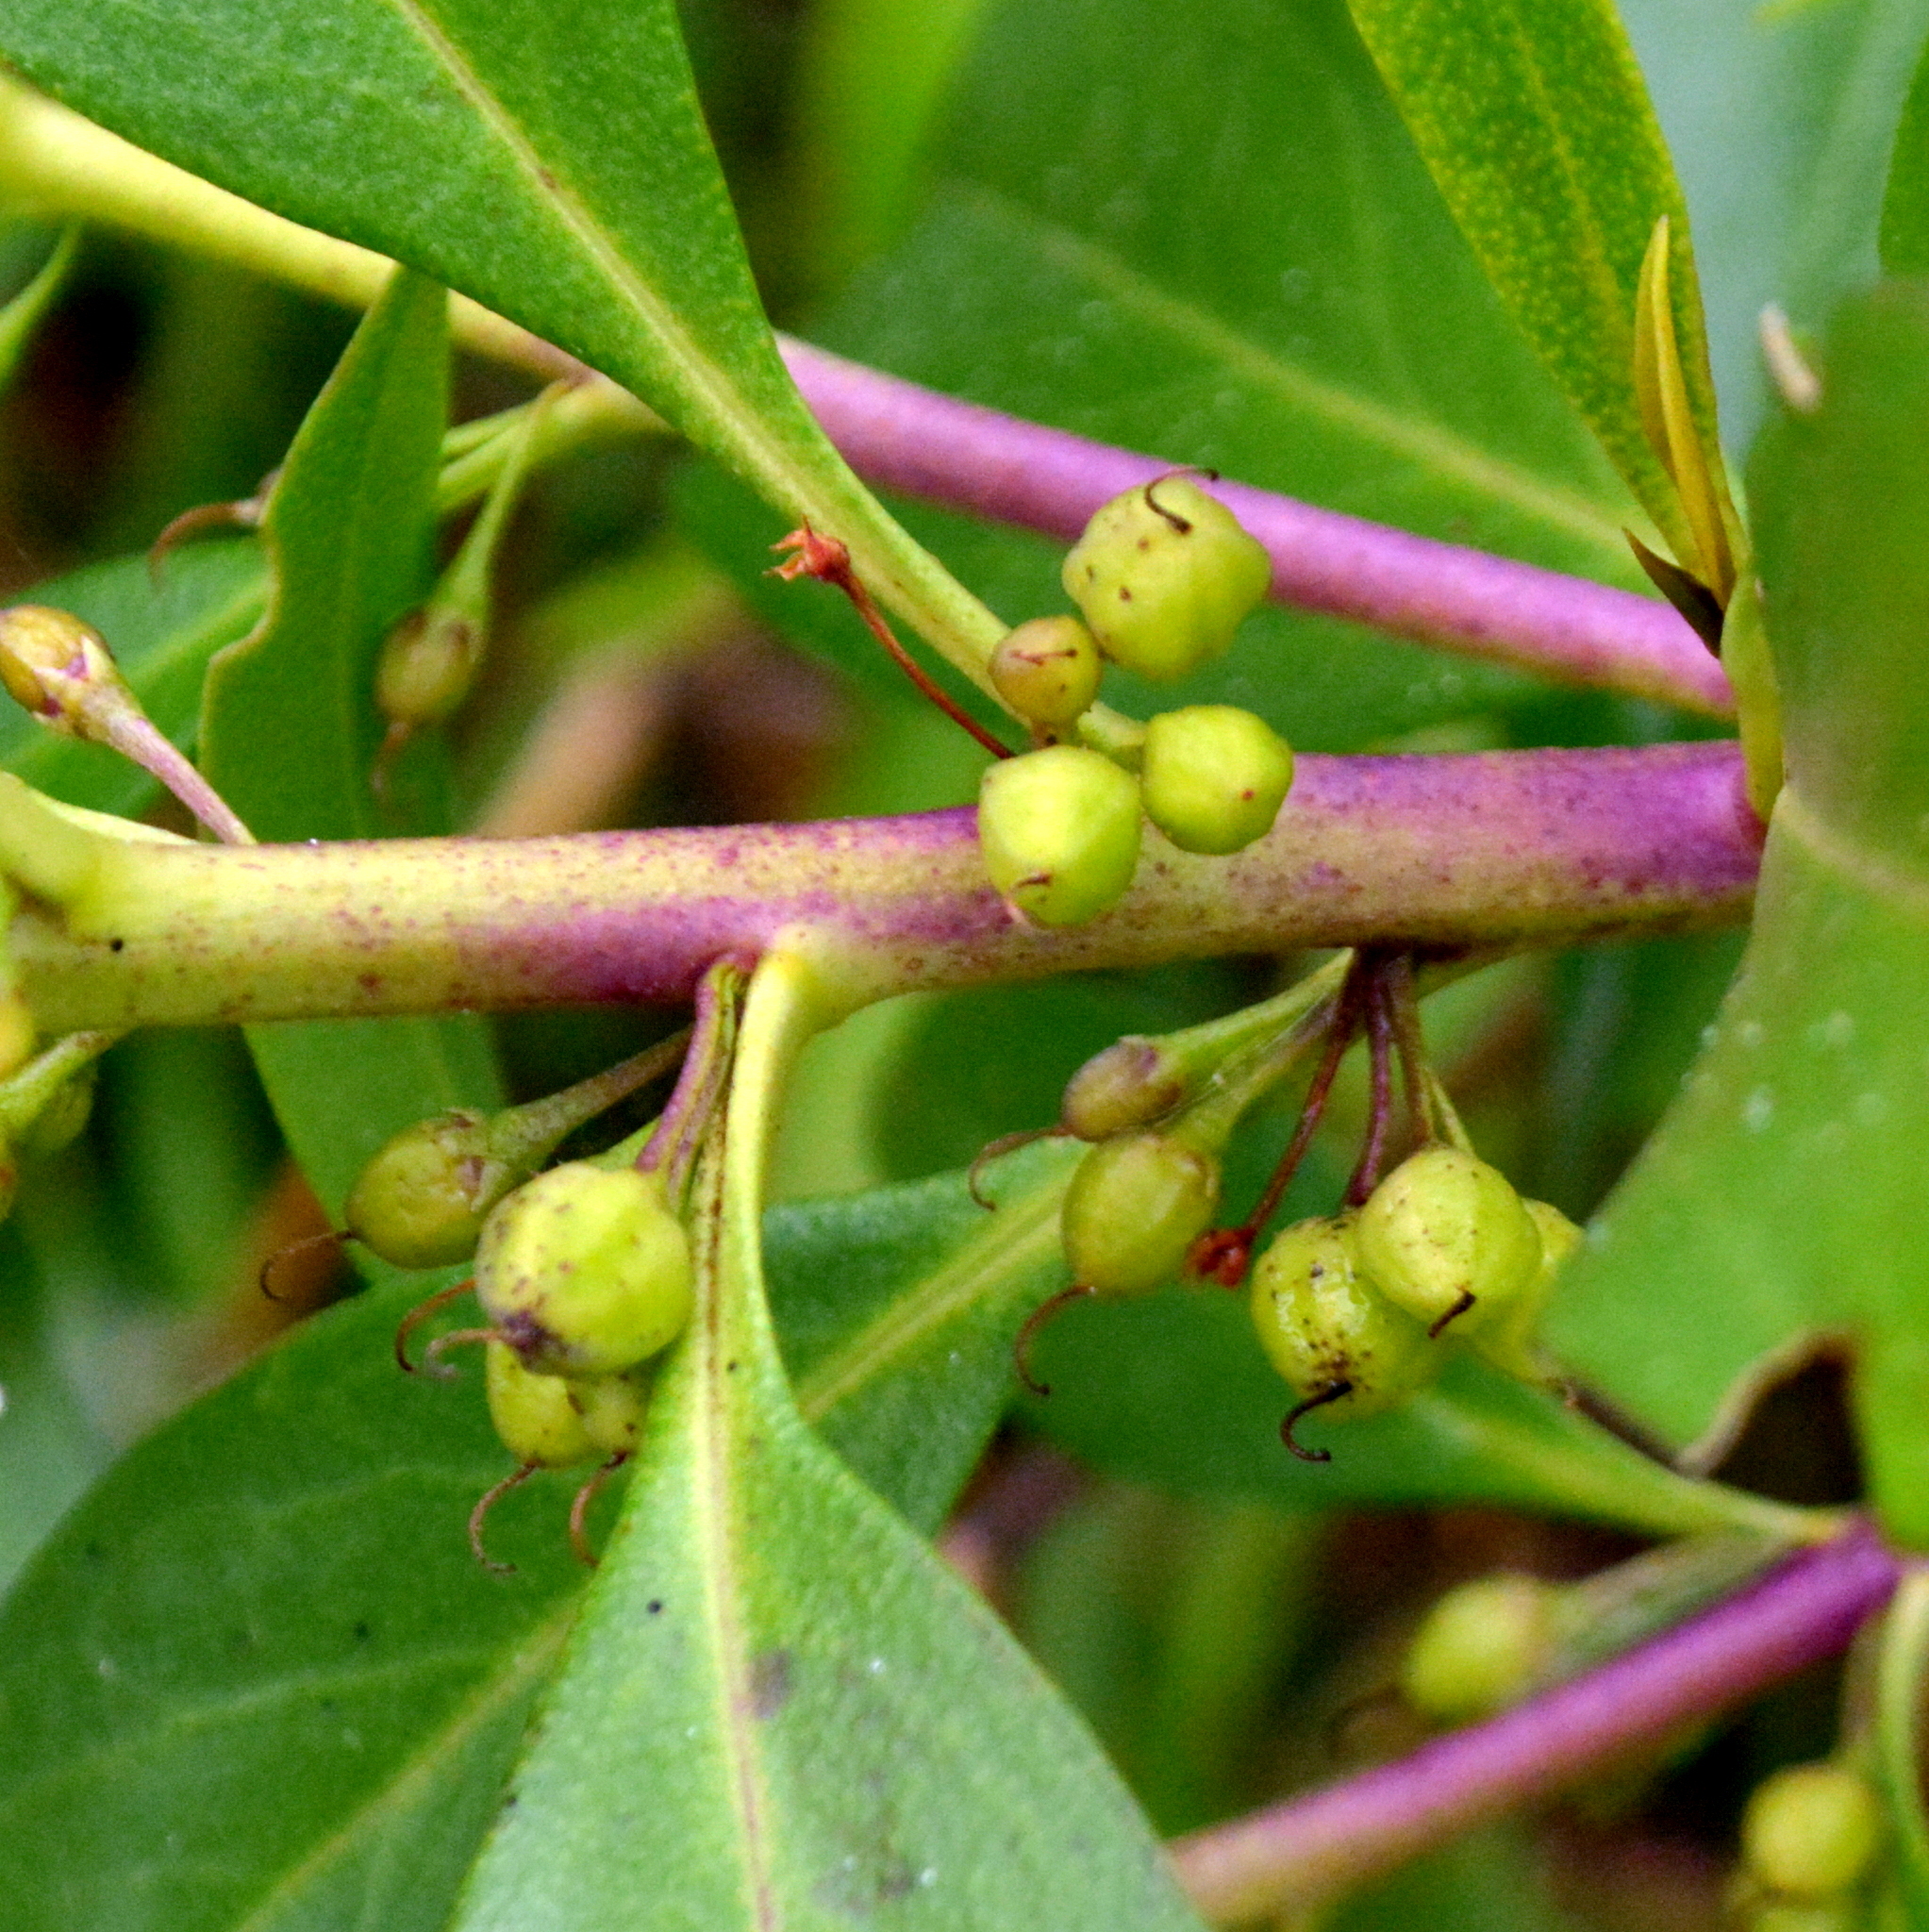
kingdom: Plantae
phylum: Tracheophyta
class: Magnoliopsida
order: Lamiales
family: Scrophulariaceae
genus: Myoporum
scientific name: Myoporum laetum
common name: Ngaio tree
